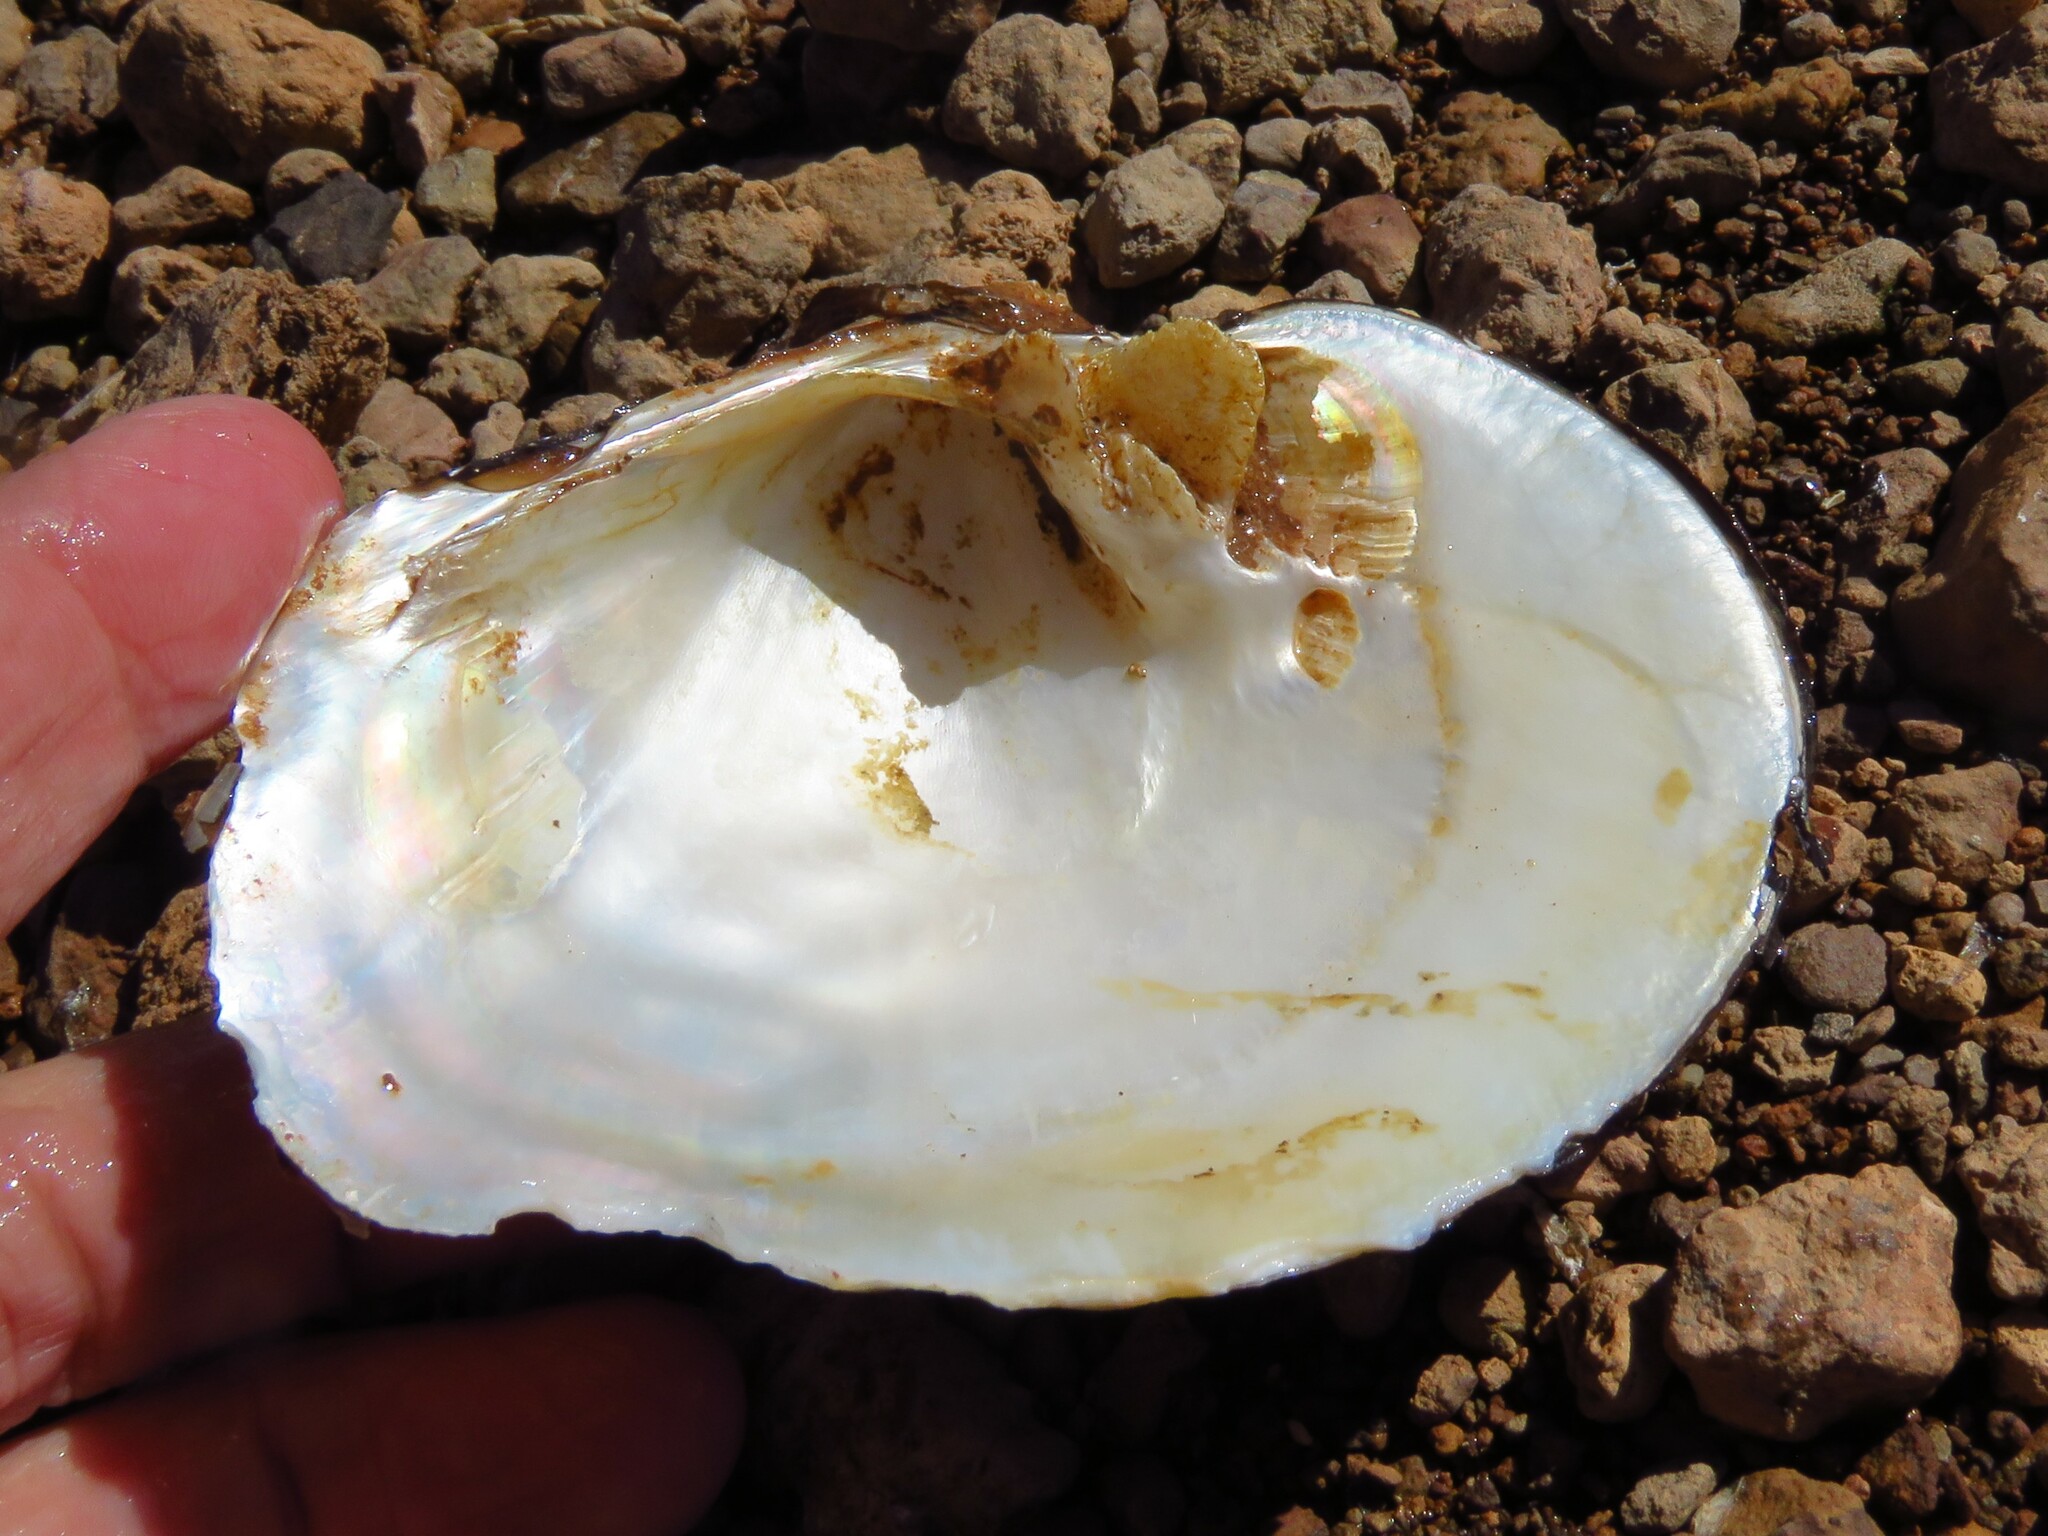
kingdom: Animalia
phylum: Mollusca
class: Bivalvia
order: Unionida
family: Unionidae
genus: Quadrula
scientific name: Quadrula quadrula
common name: Mapleleaf
